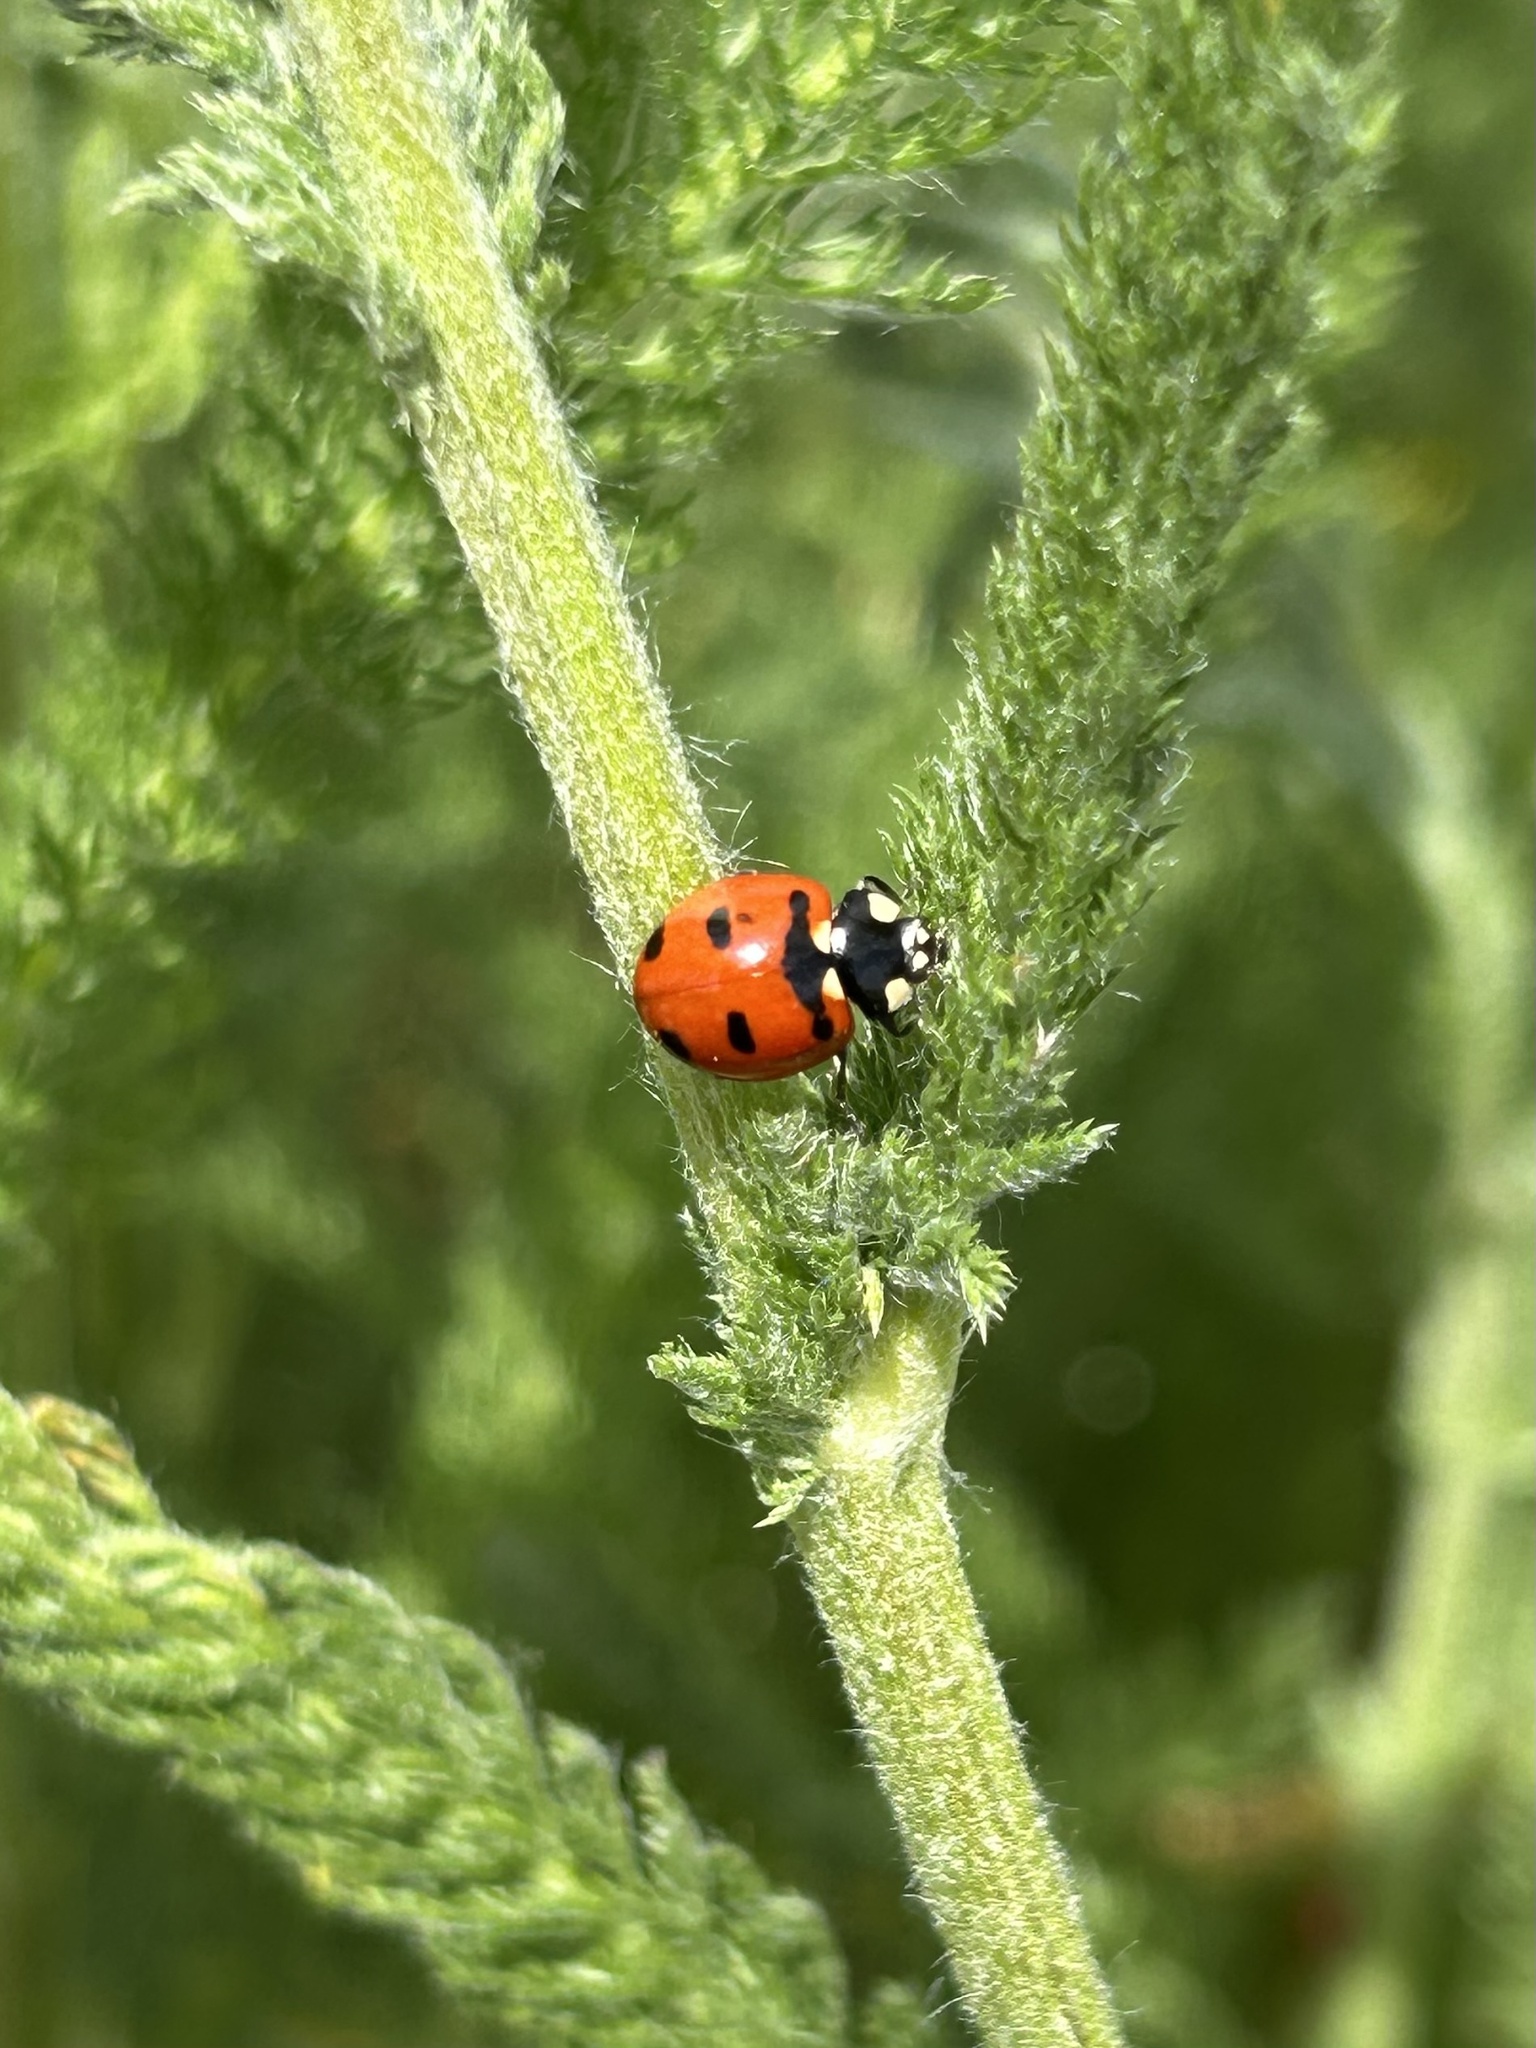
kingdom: Animalia
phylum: Arthropoda
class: Insecta
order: Coleoptera
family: Coccinellidae
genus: Coccinella
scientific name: Coccinella transversoguttata
